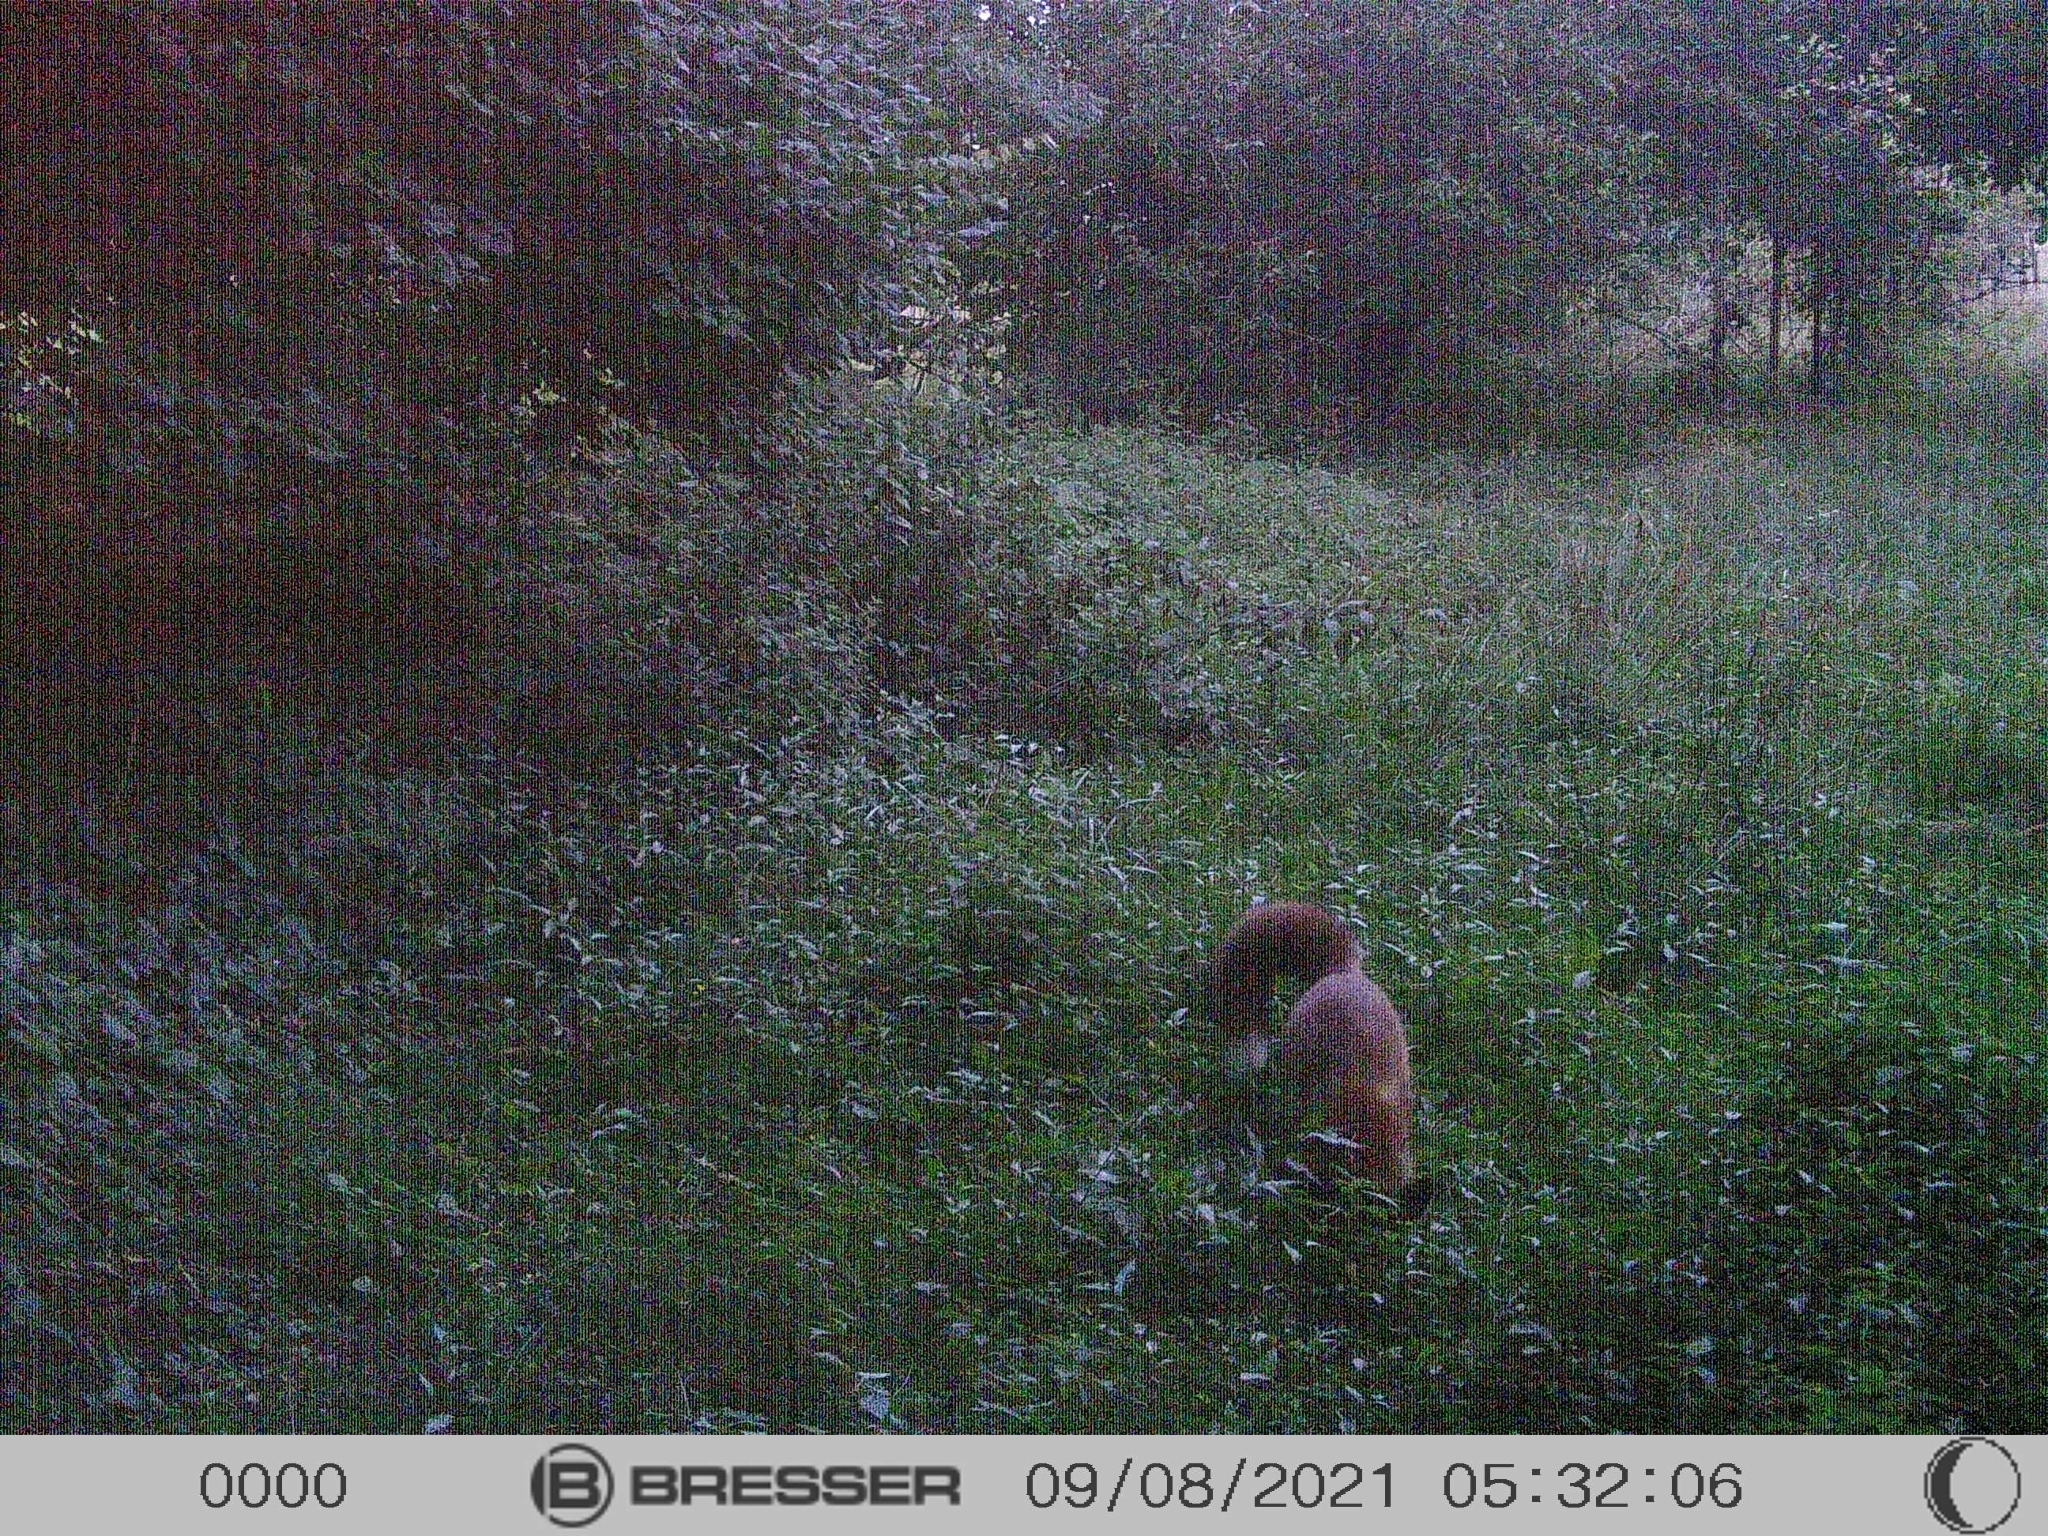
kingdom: Animalia
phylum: Chordata
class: Mammalia
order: Carnivora
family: Canidae
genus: Vulpes
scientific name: Vulpes vulpes
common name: Red fox
